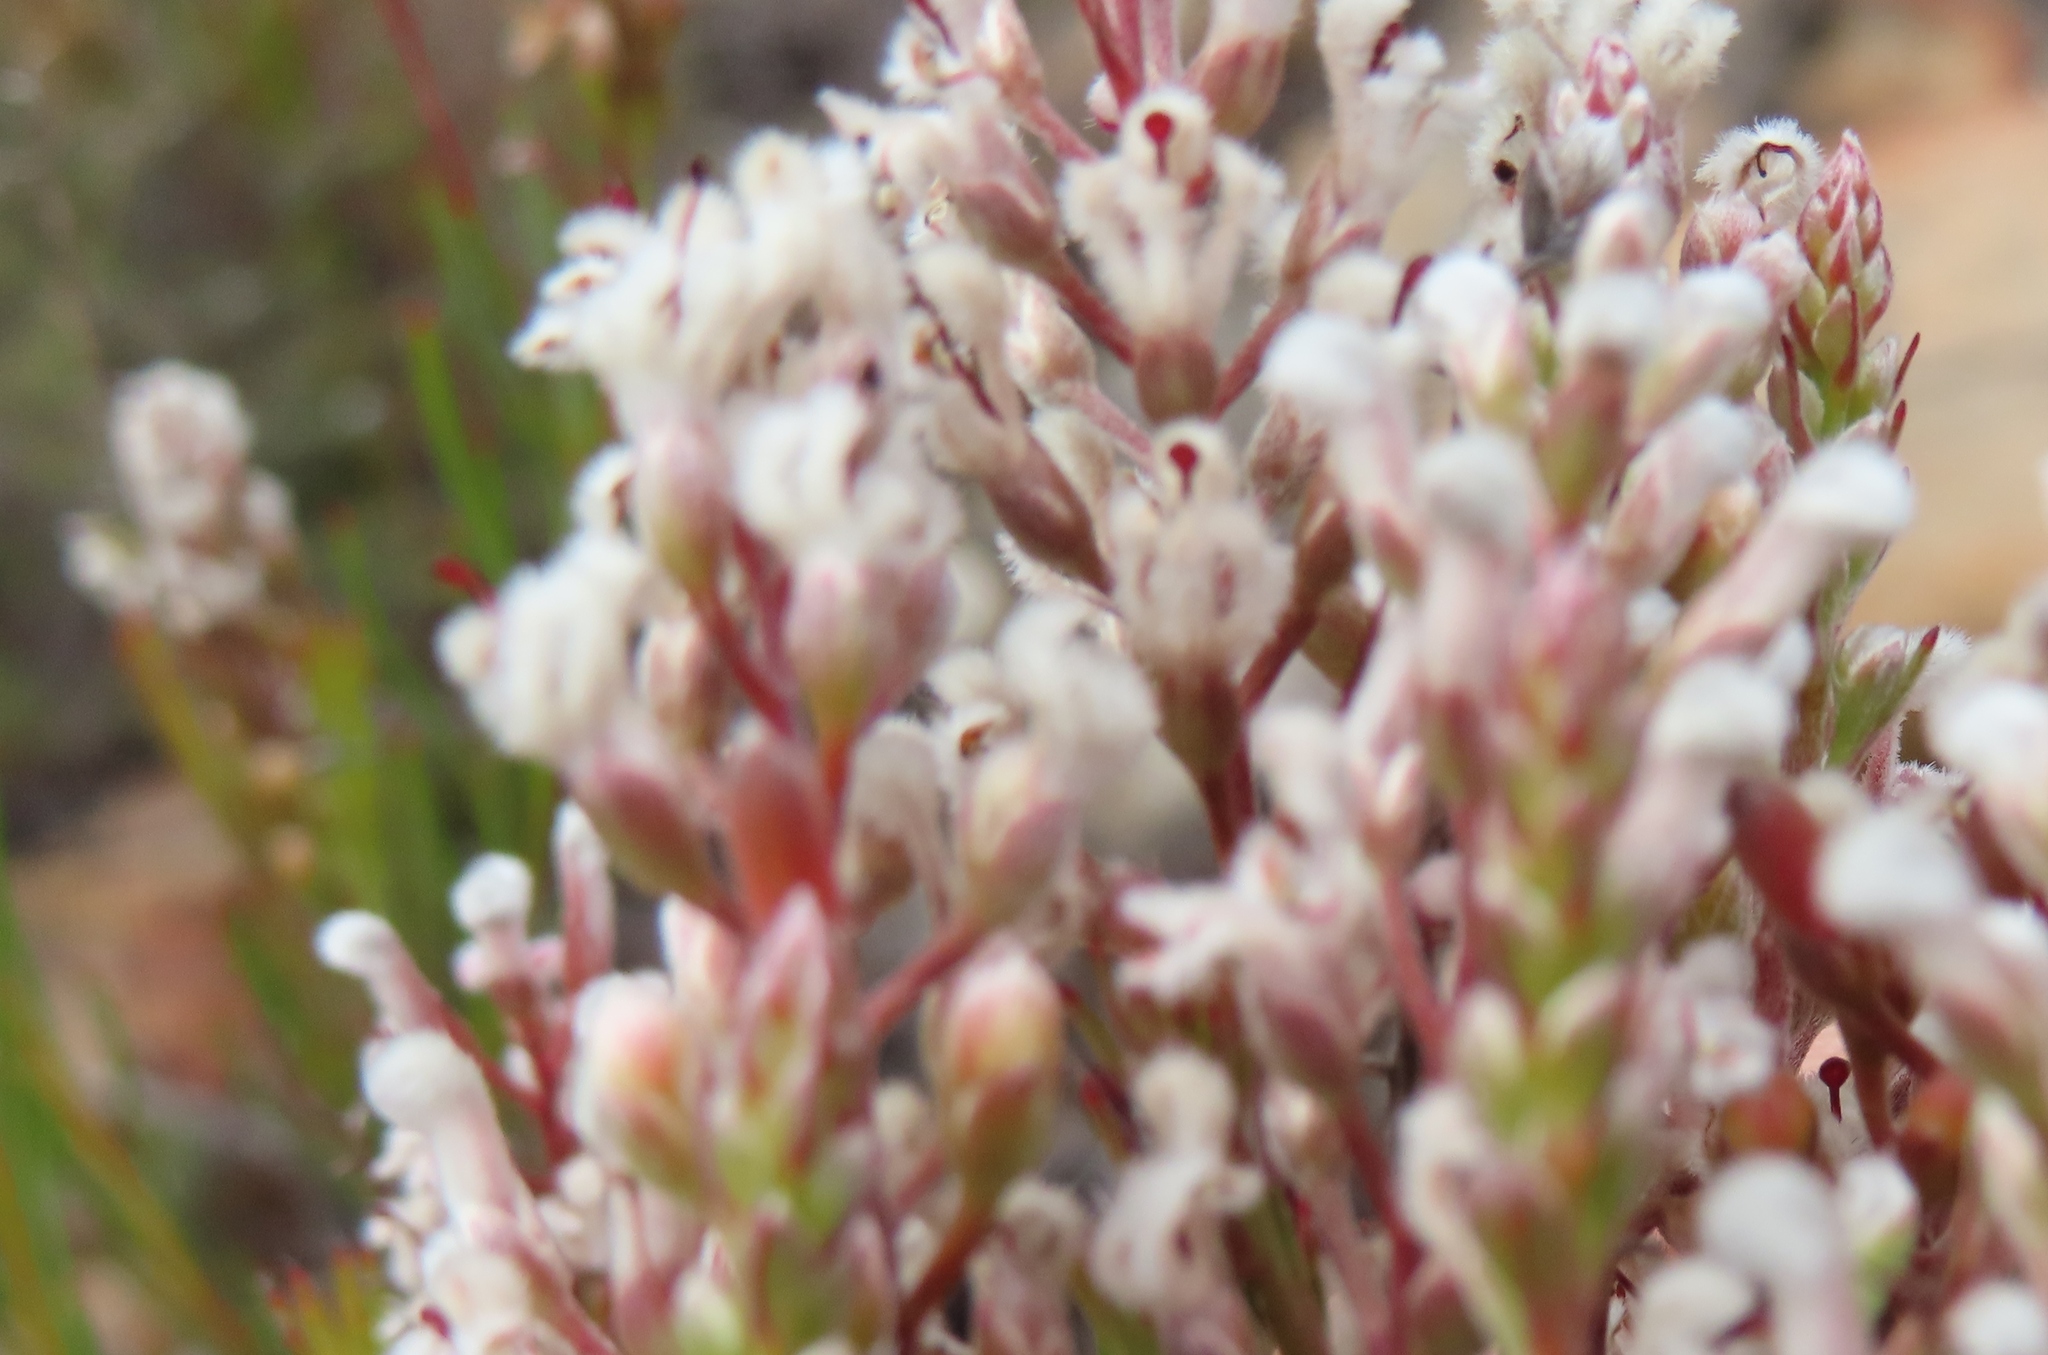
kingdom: Plantae
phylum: Tracheophyta
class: Magnoliopsida
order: Proteales
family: Proteaceae
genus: Spatalla
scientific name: Spatalla racemosa
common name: Lax-stalked spoon
